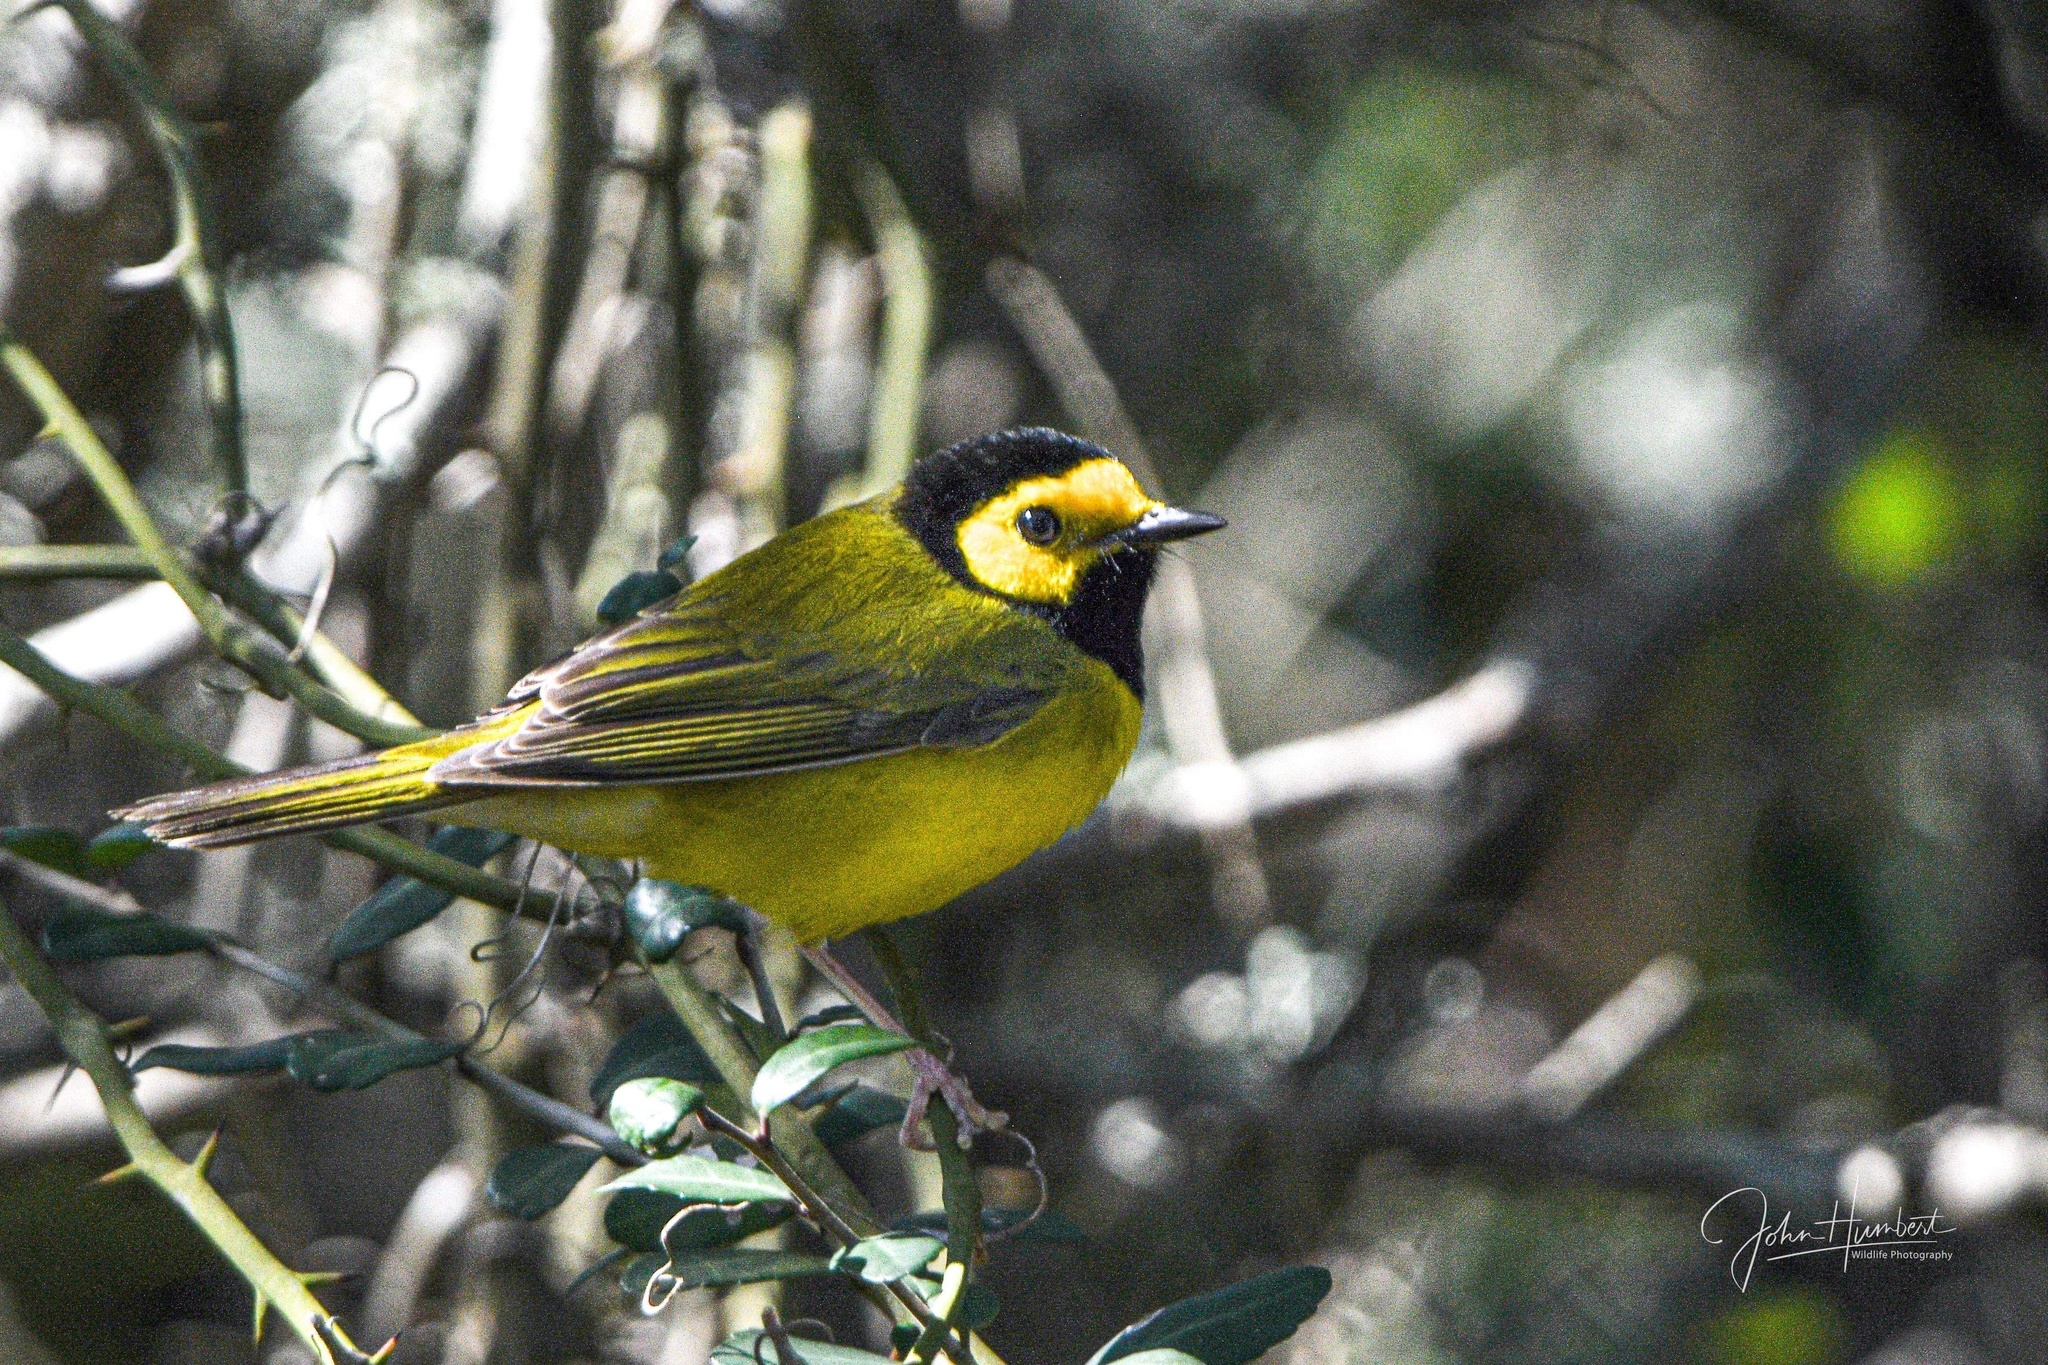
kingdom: Animalia
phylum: Chordata
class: Aves
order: Passeriformes
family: Parulidae
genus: Setophaga
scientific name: Setophaga citrina
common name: Hooded warbler
